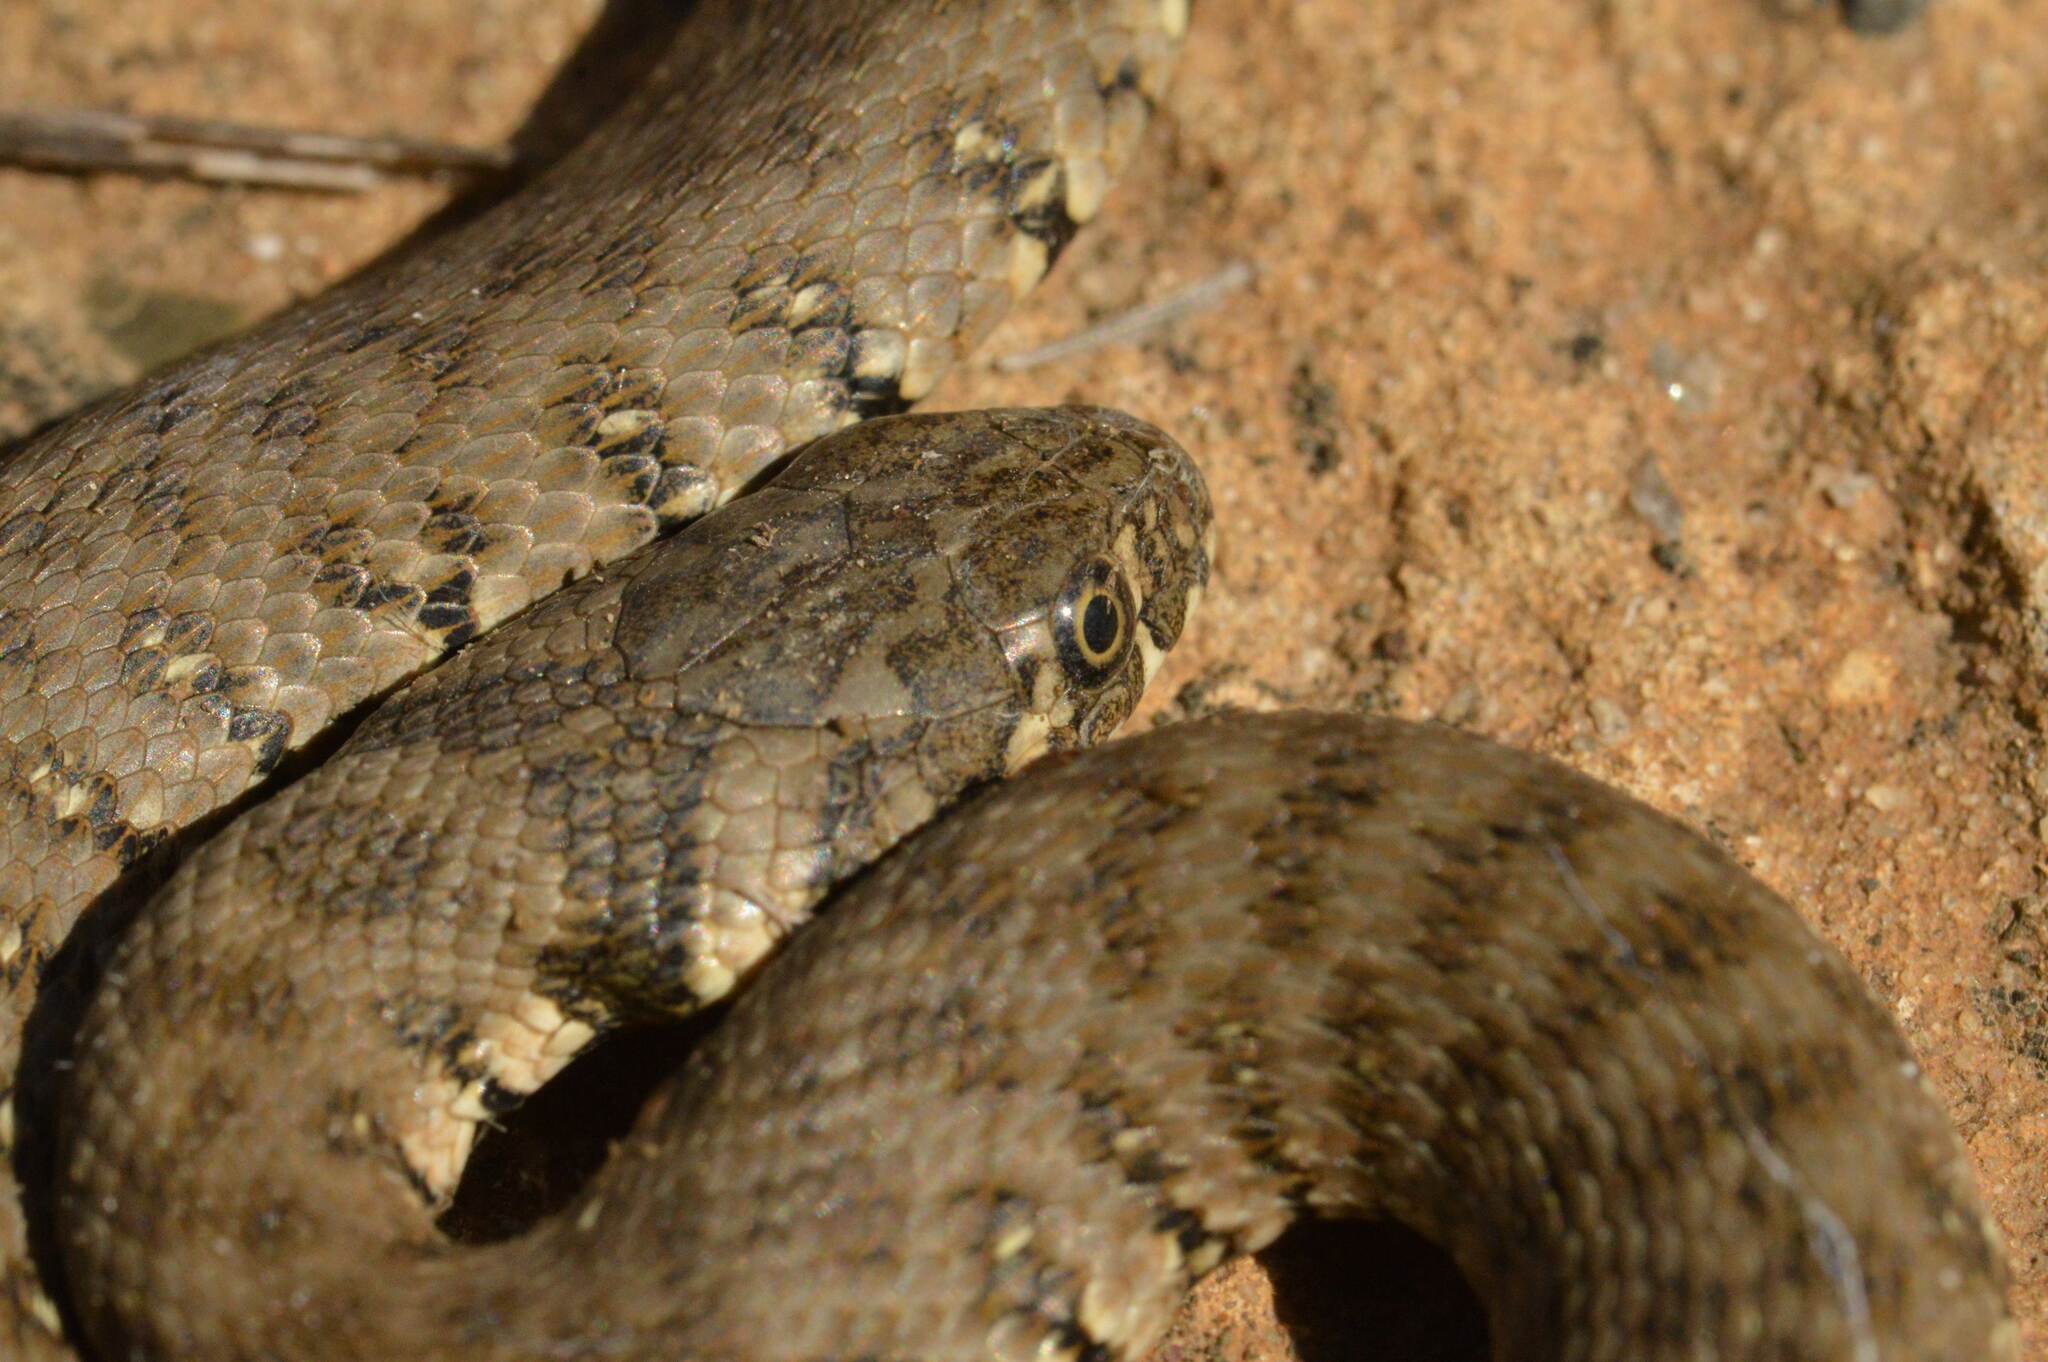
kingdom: Animalia
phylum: Chordata
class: Squamata
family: Colubridae
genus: Natrix
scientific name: Natrix maura
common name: Viperine water snake
